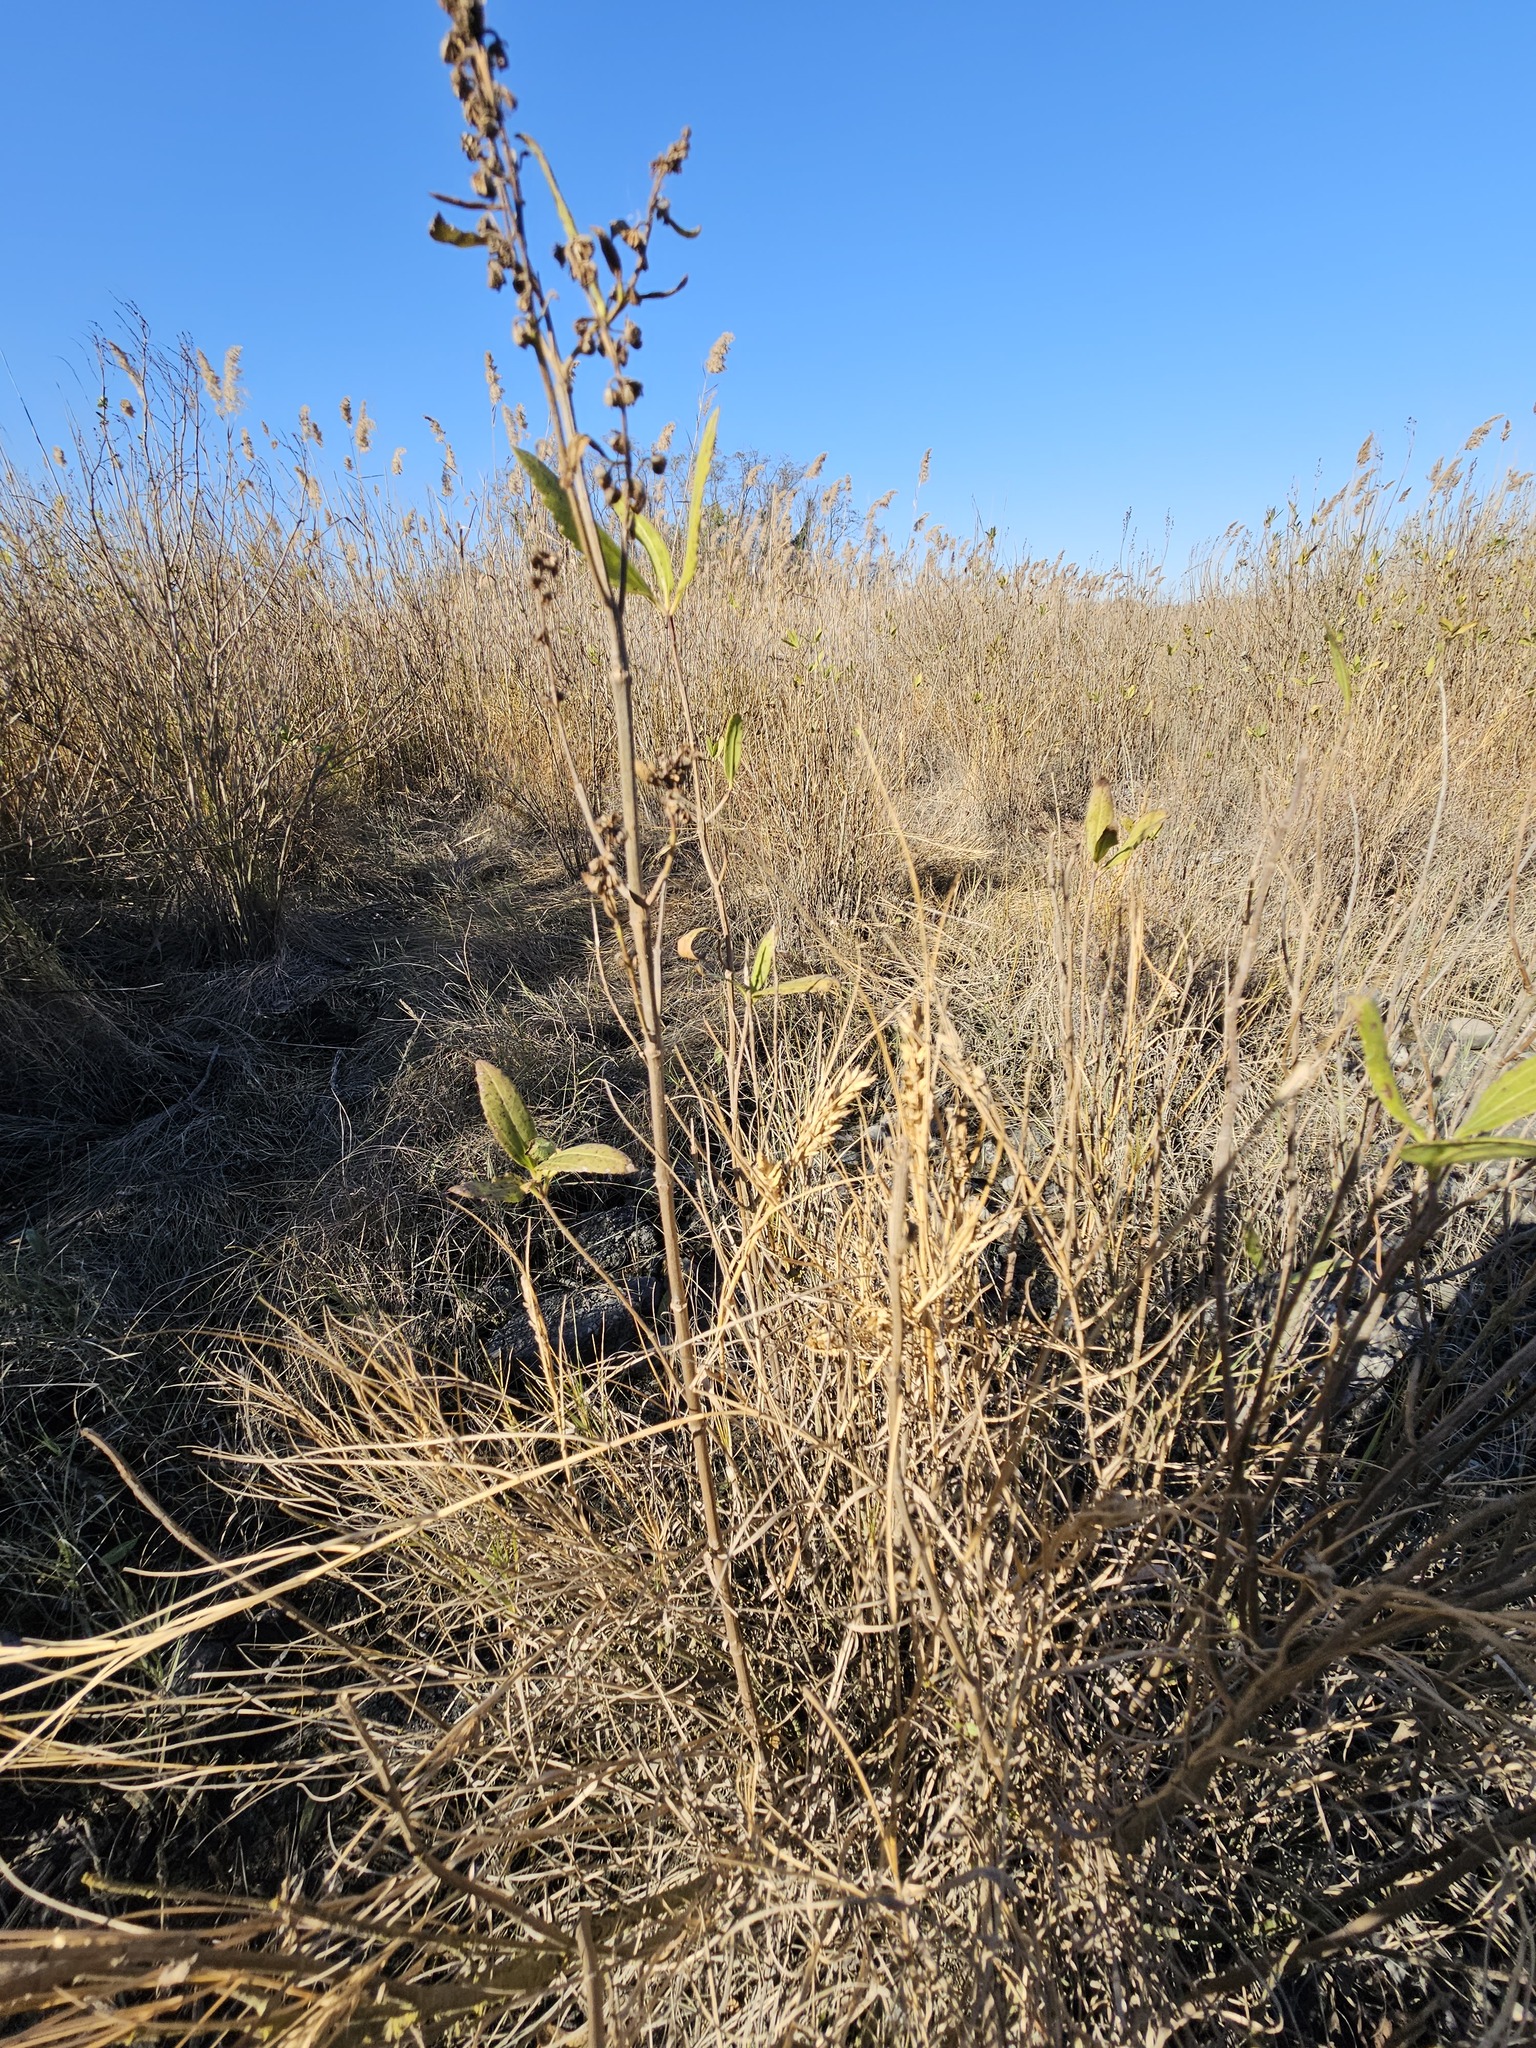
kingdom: Plantae
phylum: Tracheophyta
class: Magnoliopsida
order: Asterales
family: Asteraceae
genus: Iva
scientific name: Iva frutescens
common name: Big-leaved marsh-elder
